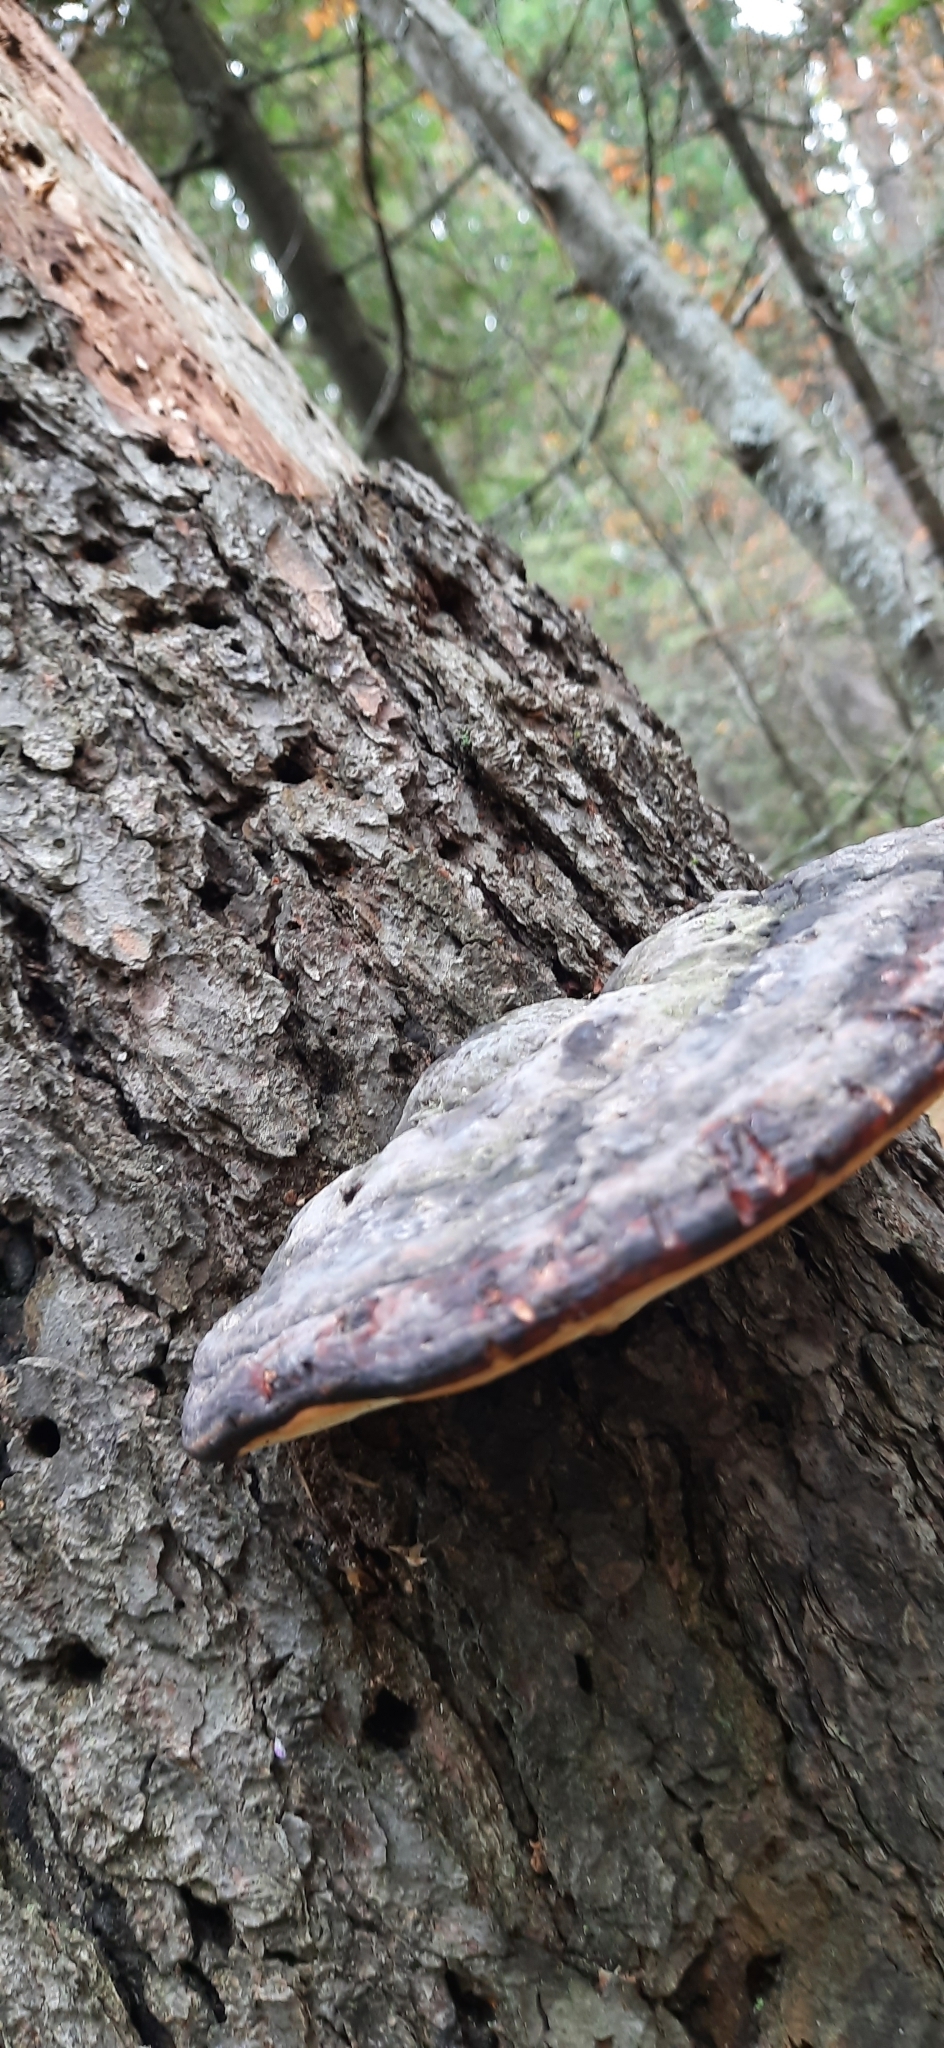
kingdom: Fungi
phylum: Basidiomycota
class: Agaricomycetes
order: Polyporales
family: Fomitopsidaceae
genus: Fomitopsis
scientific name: Fomitopsis pinicola
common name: Red-belted bracket
